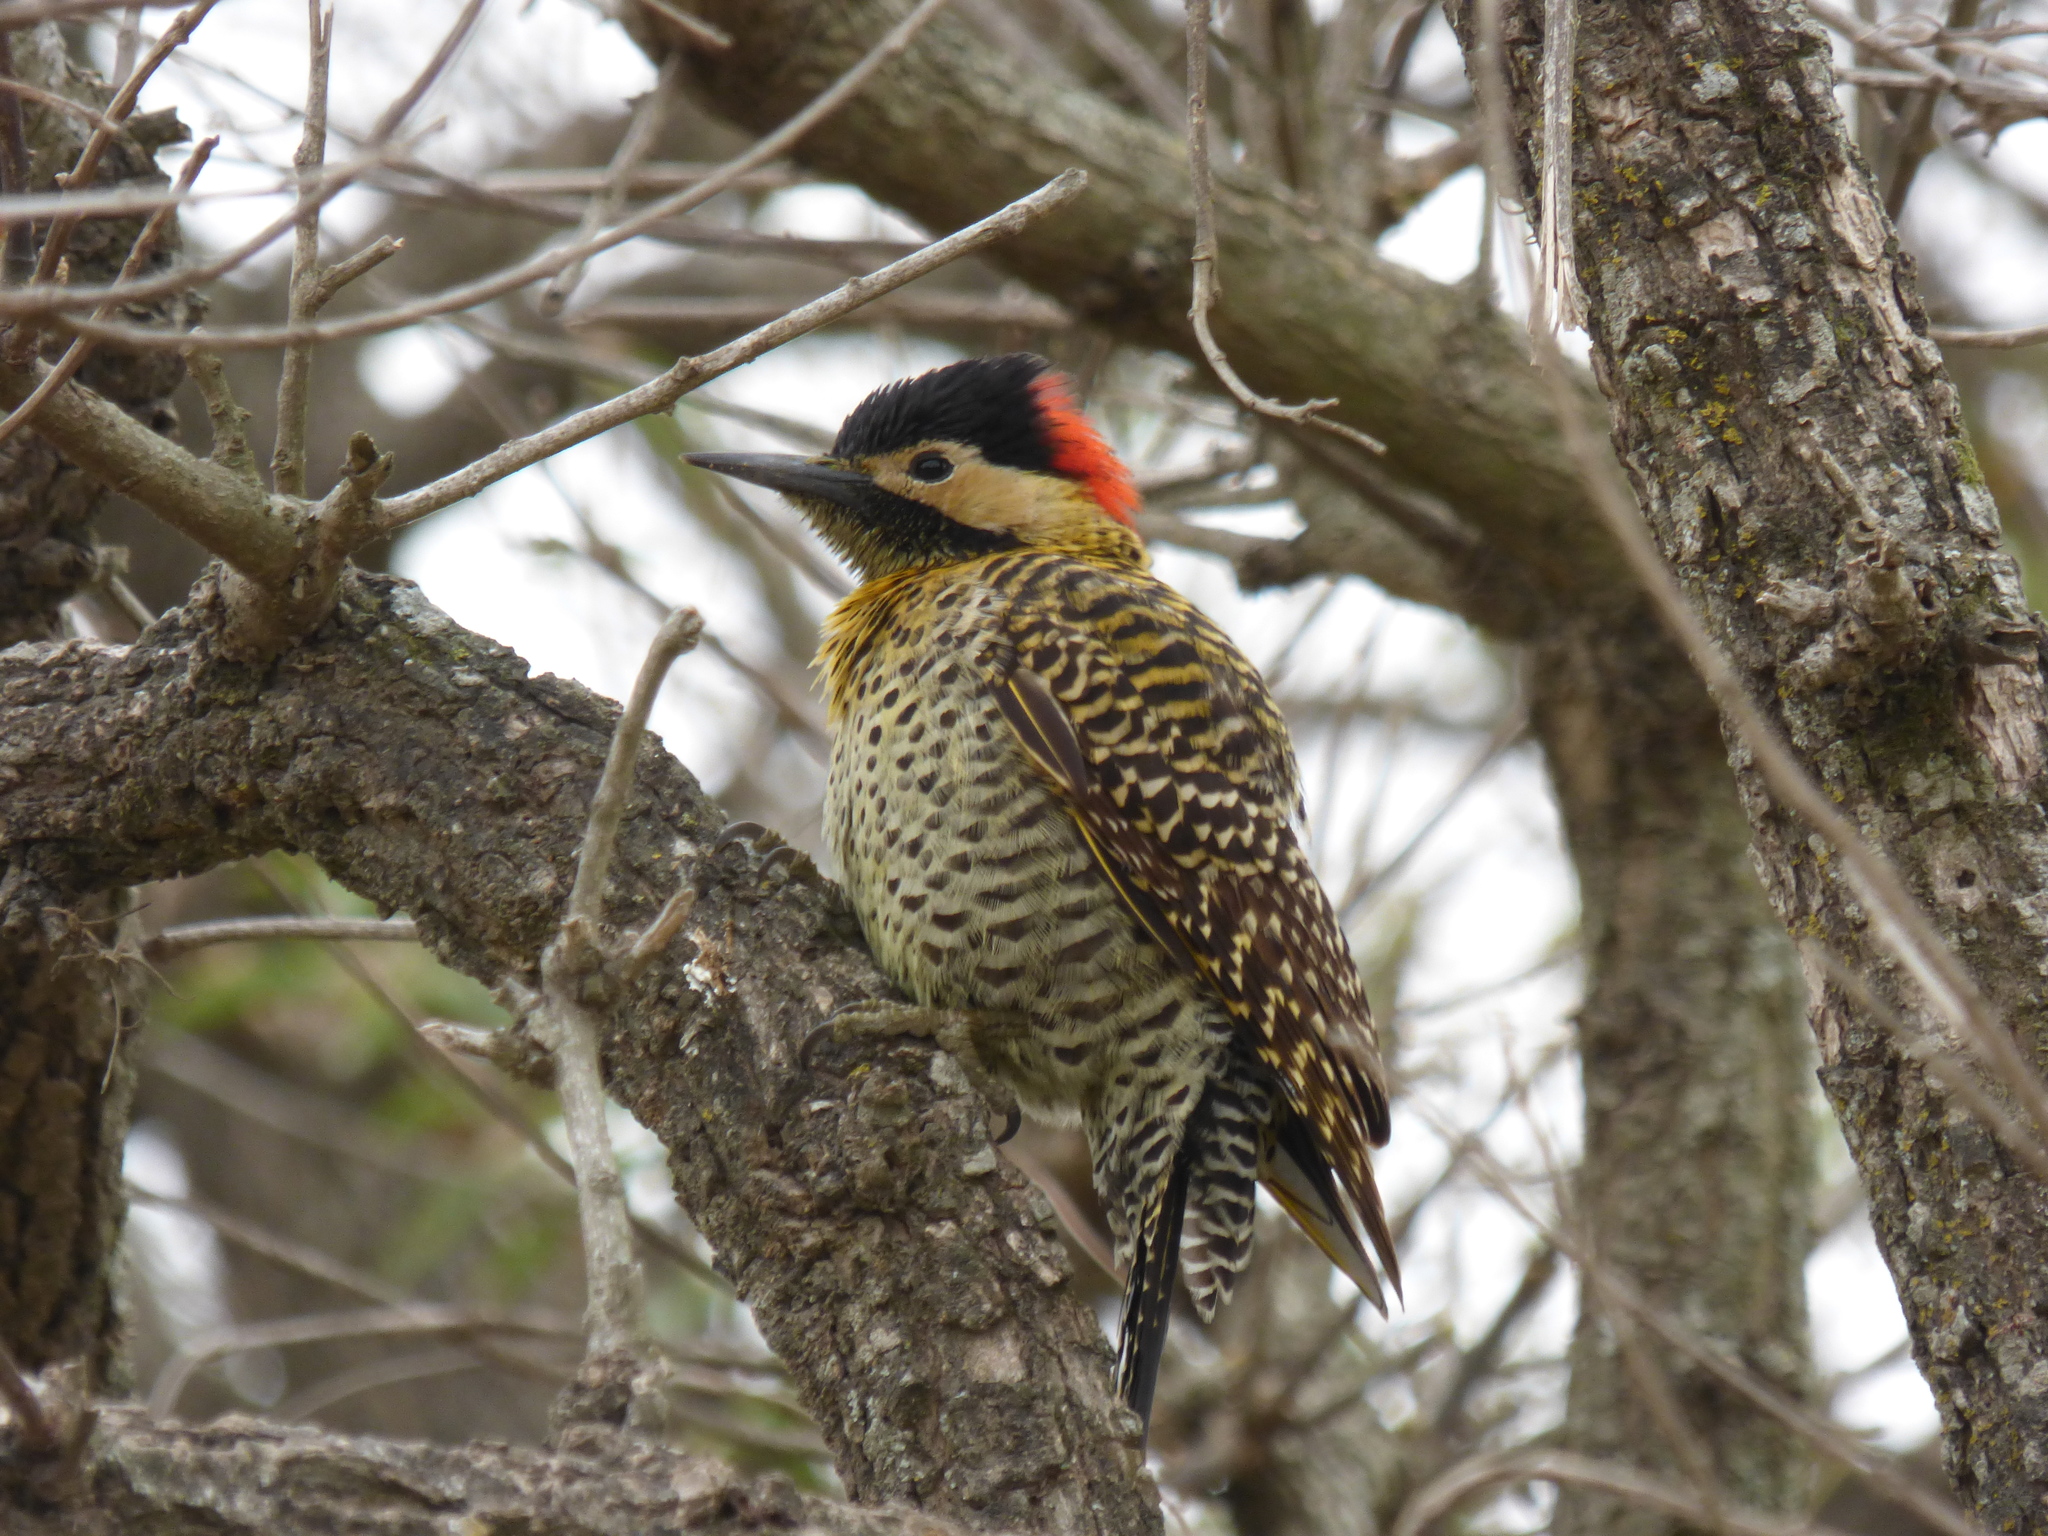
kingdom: Animalia
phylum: Chordata
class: Aves
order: Piciformes
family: Picidae
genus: Colaptes
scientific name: Colaptes melanochloros
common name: Green-barred woodpecker
